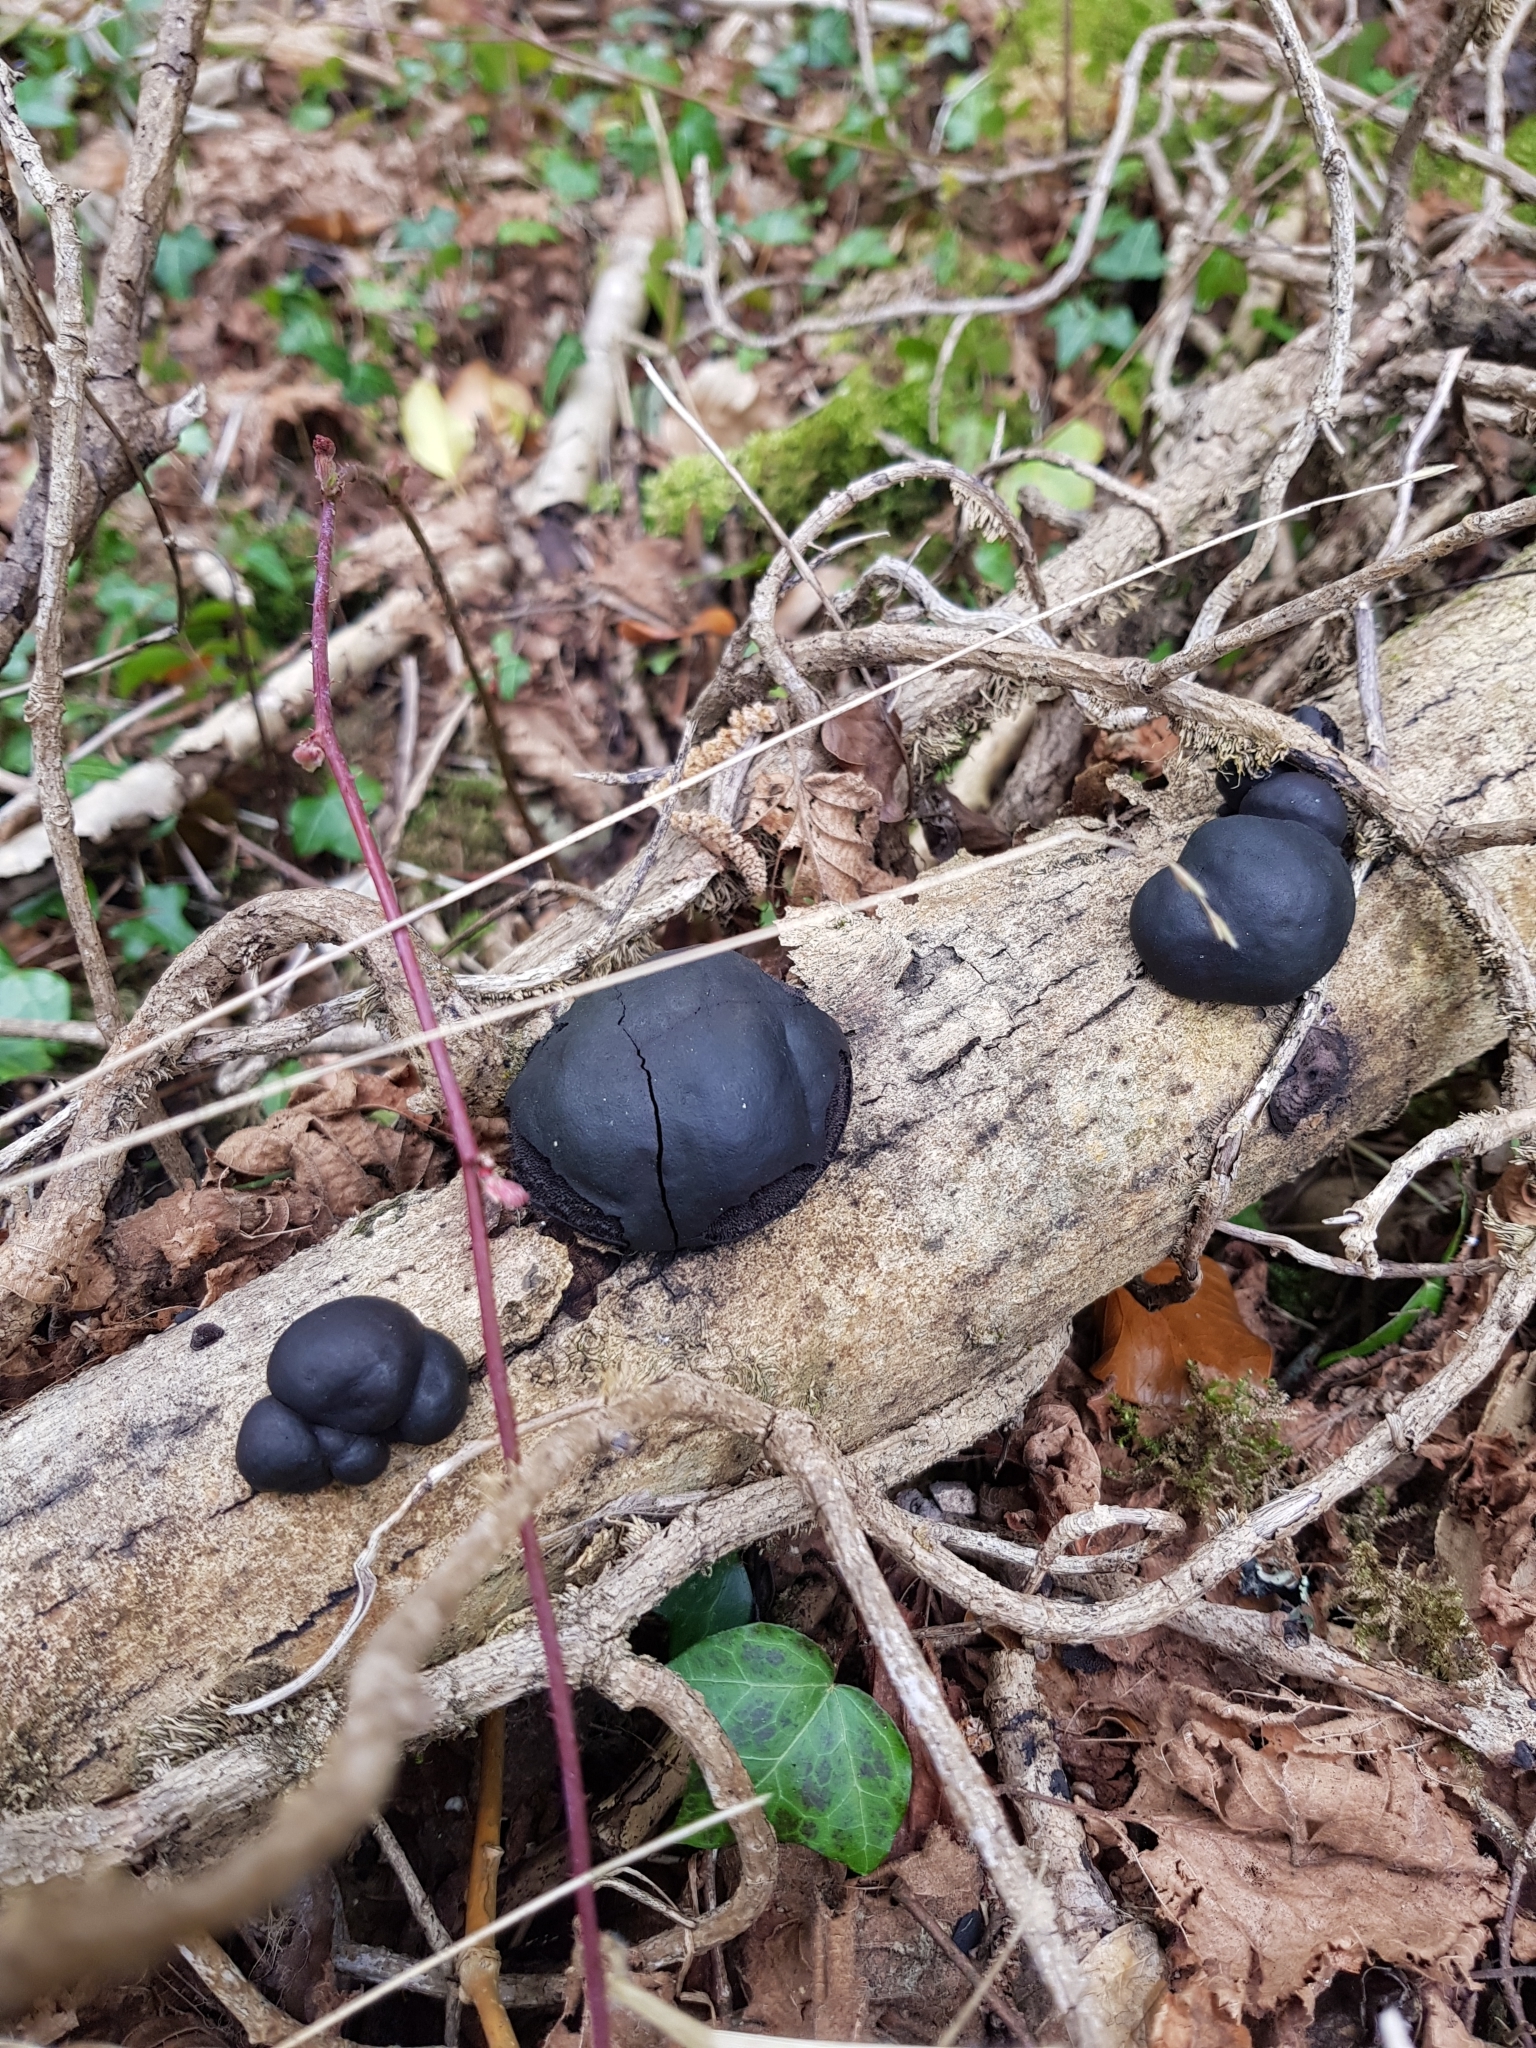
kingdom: Fungi
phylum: Ascomycota
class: Sordariomycetes
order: Xylariales
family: Hypoxylaceae
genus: Daldinia
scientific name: Daldinia concentrica
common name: Cramp balls
